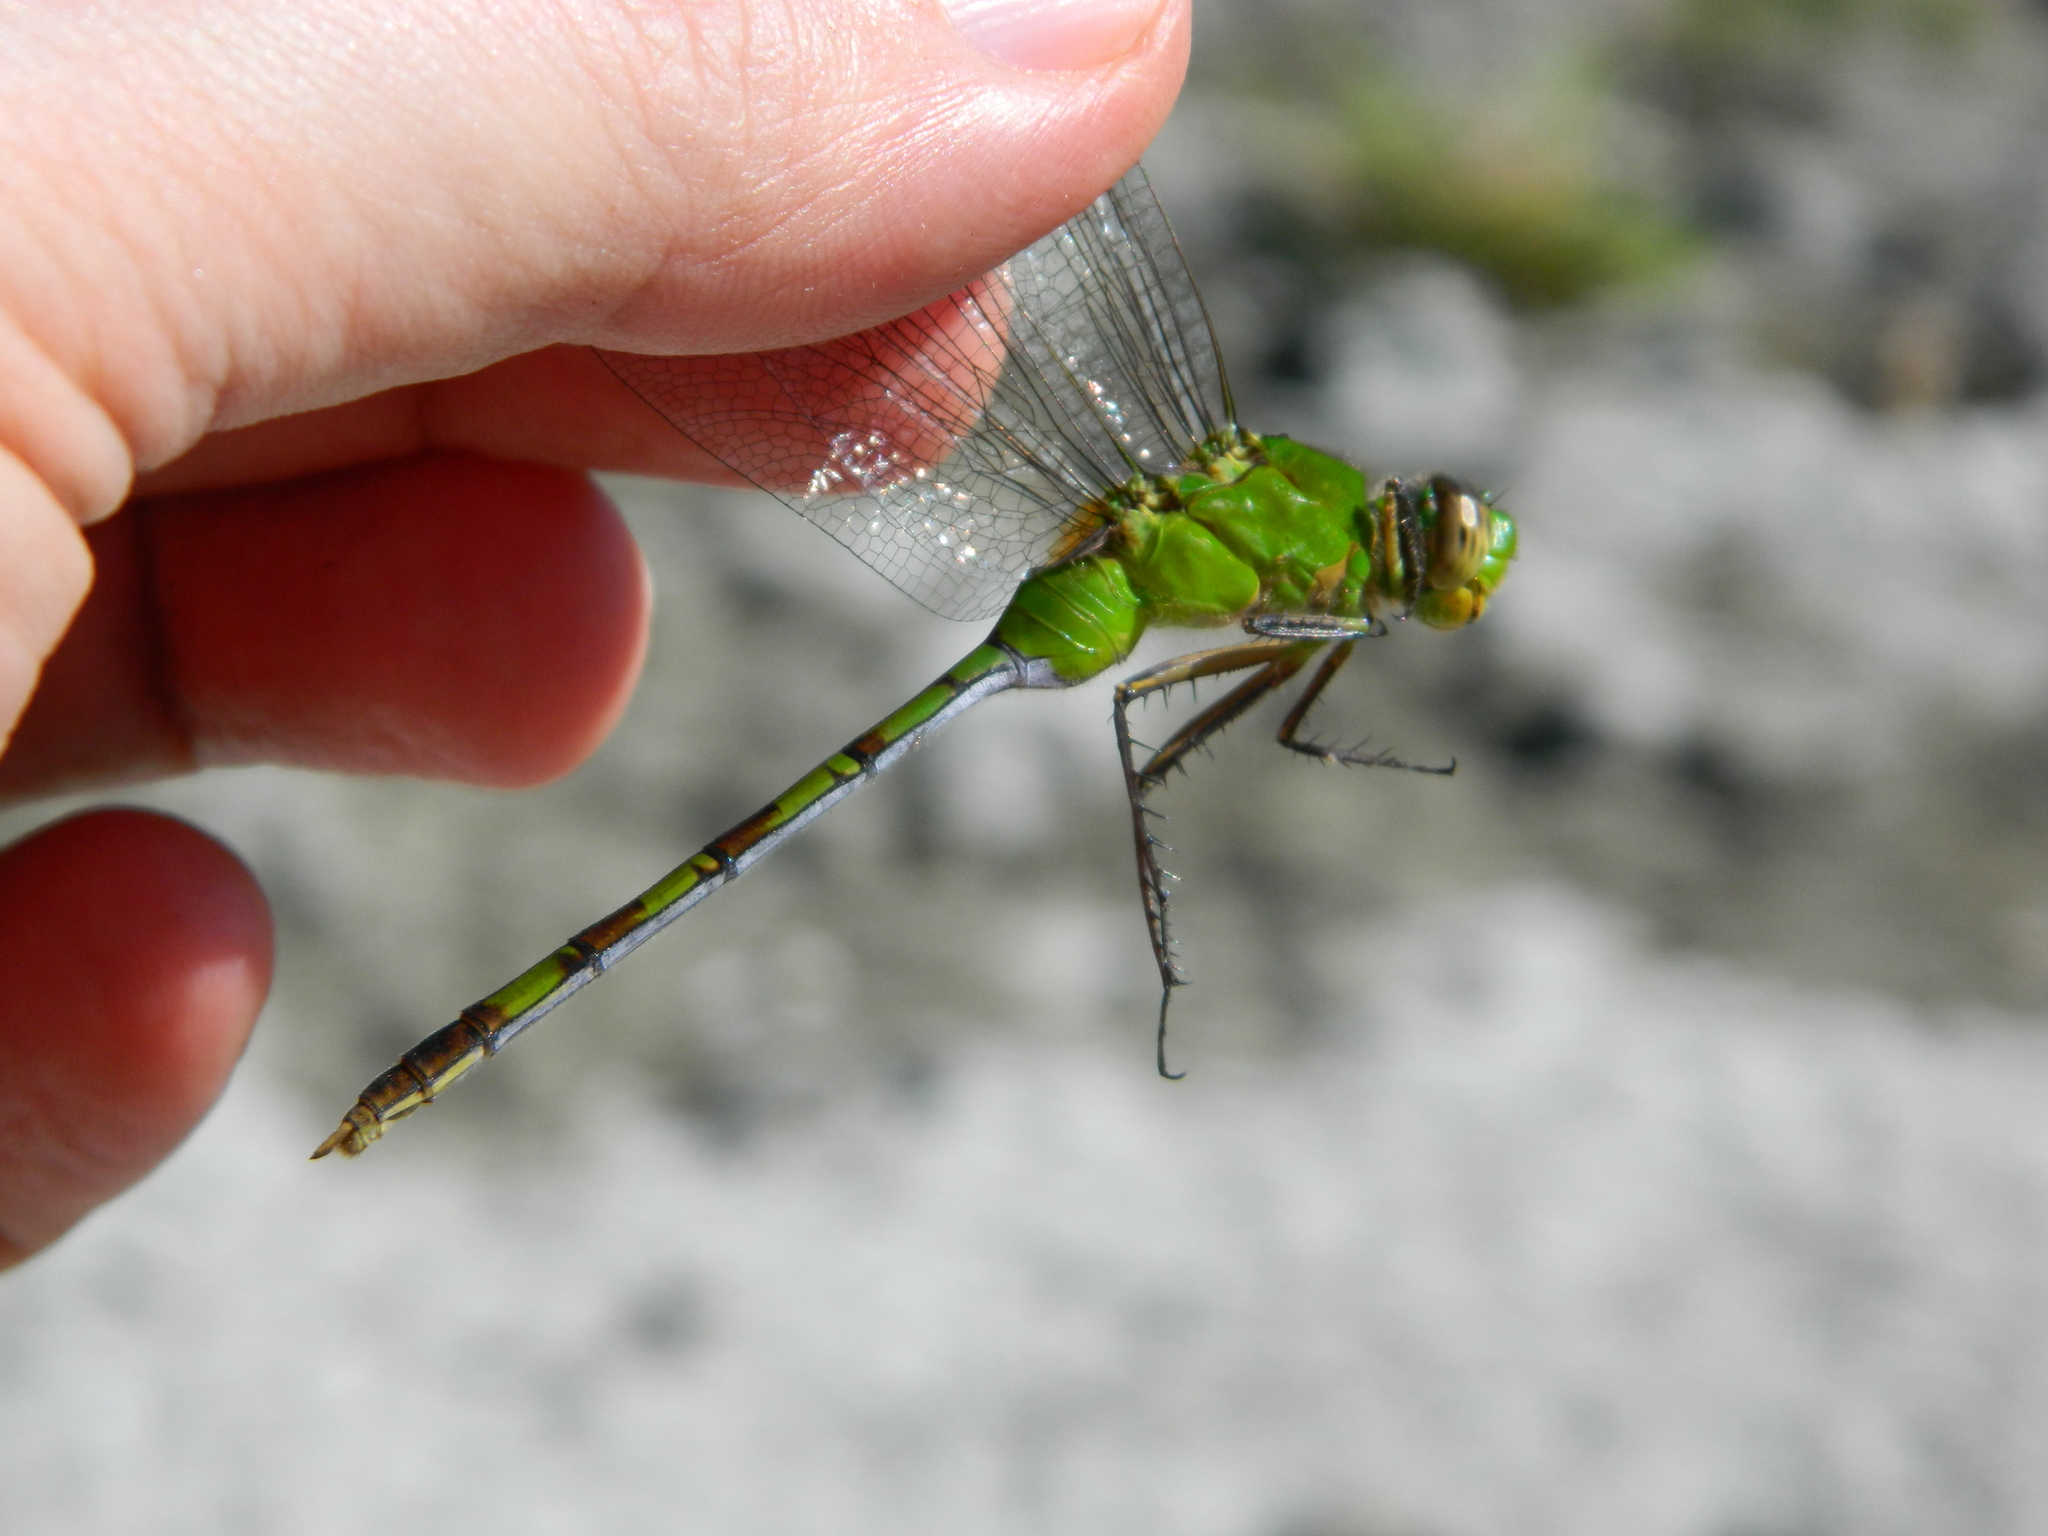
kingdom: Animalia
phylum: Arthropoda
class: Insecta
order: Odonata
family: Libellulidae
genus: Erythemis
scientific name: Erythemis vesiculosa
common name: Great pondhawk
